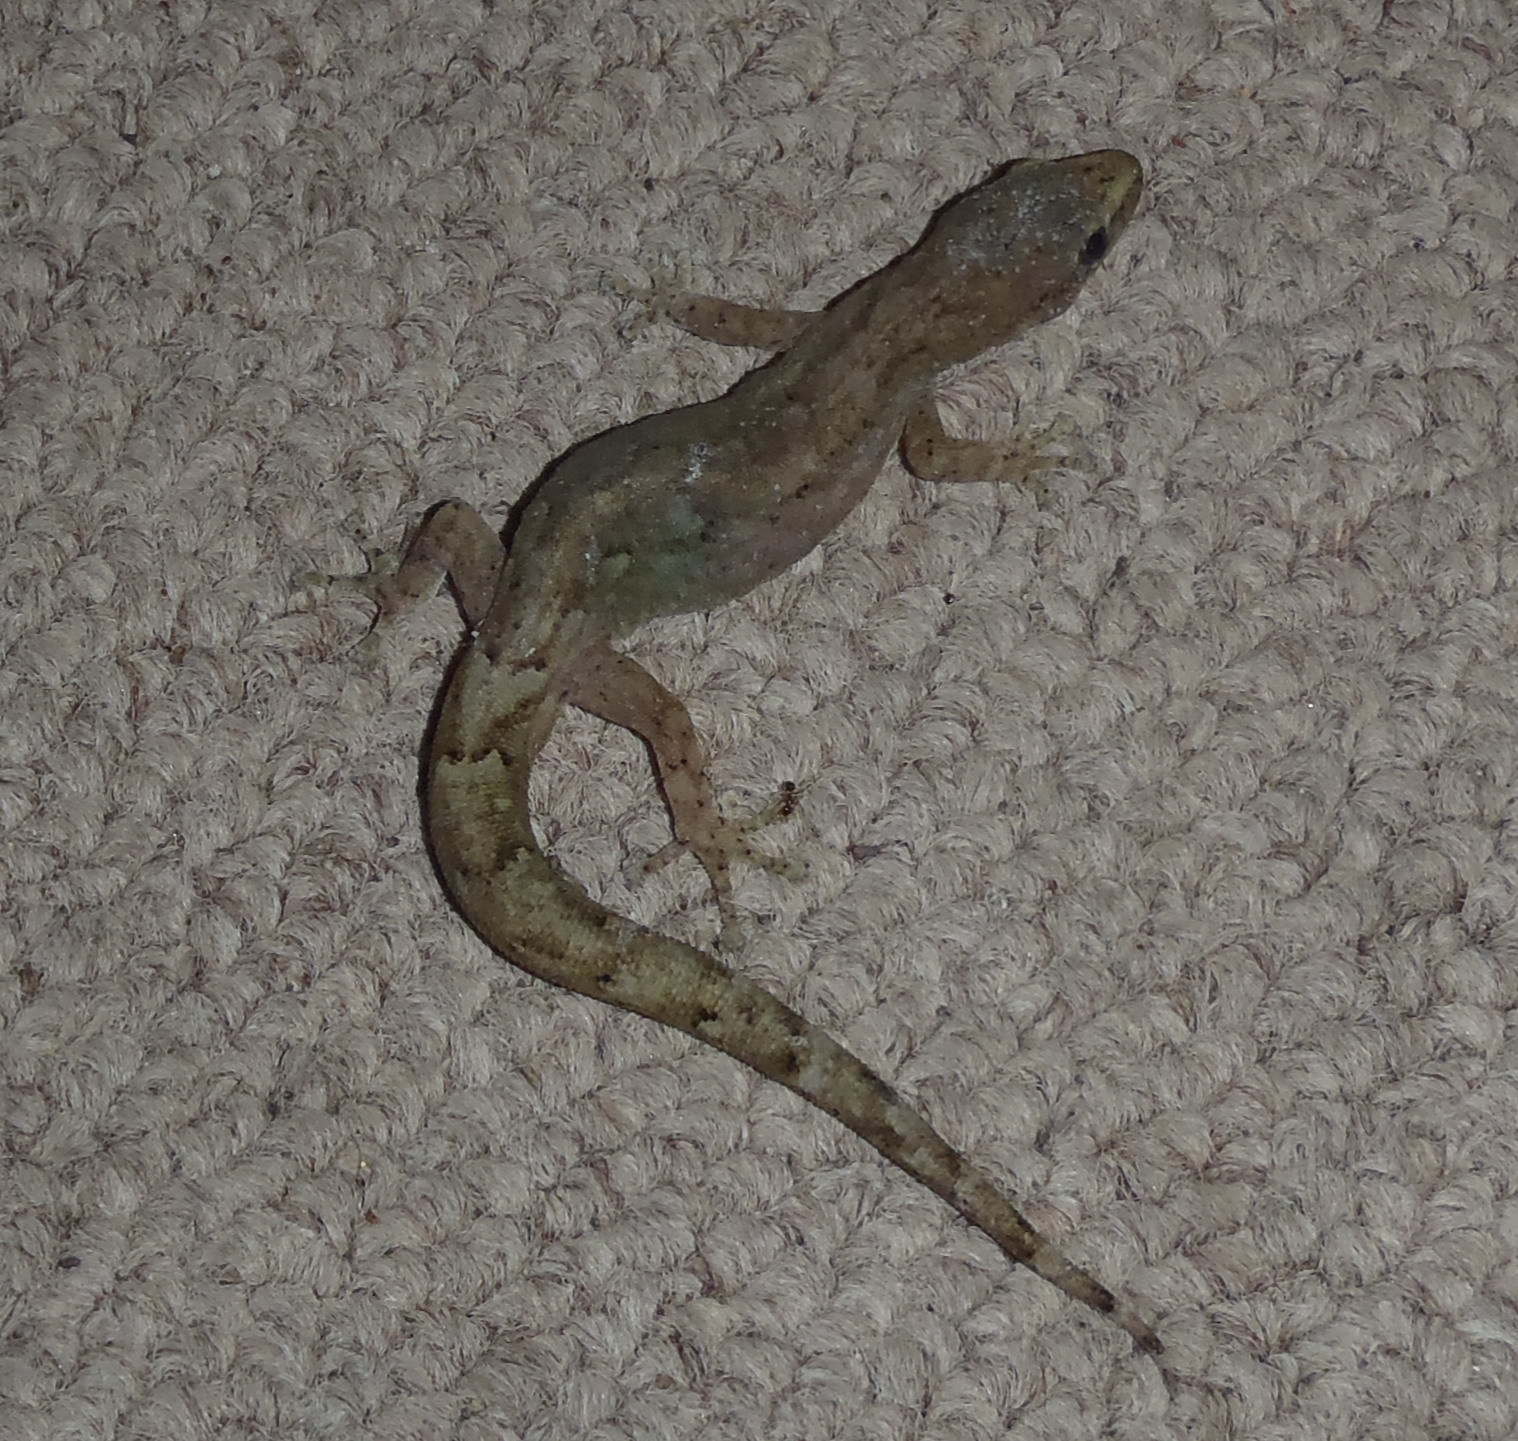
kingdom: Animalia
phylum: Chordata
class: Squamata
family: Gekkonidae
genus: Afrogecko
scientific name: Afrogecko porphyreus
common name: Marbled leaf-toed gecko
